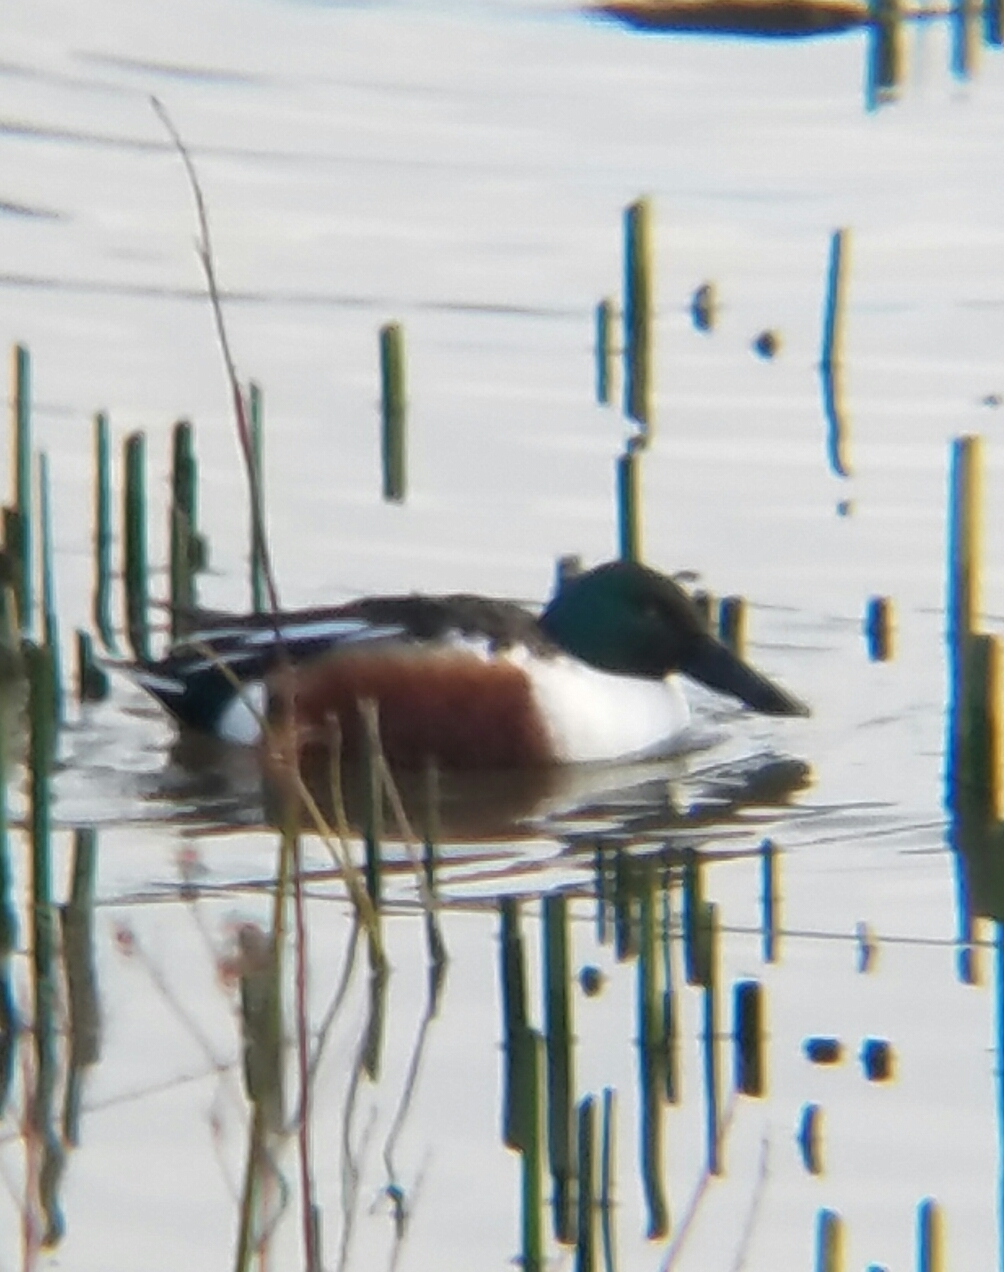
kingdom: Animalia
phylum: Chordata
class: Aves
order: Anseriformes
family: Anatidae
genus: Spatula
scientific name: Spatula clypeata
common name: Northern shoveler
